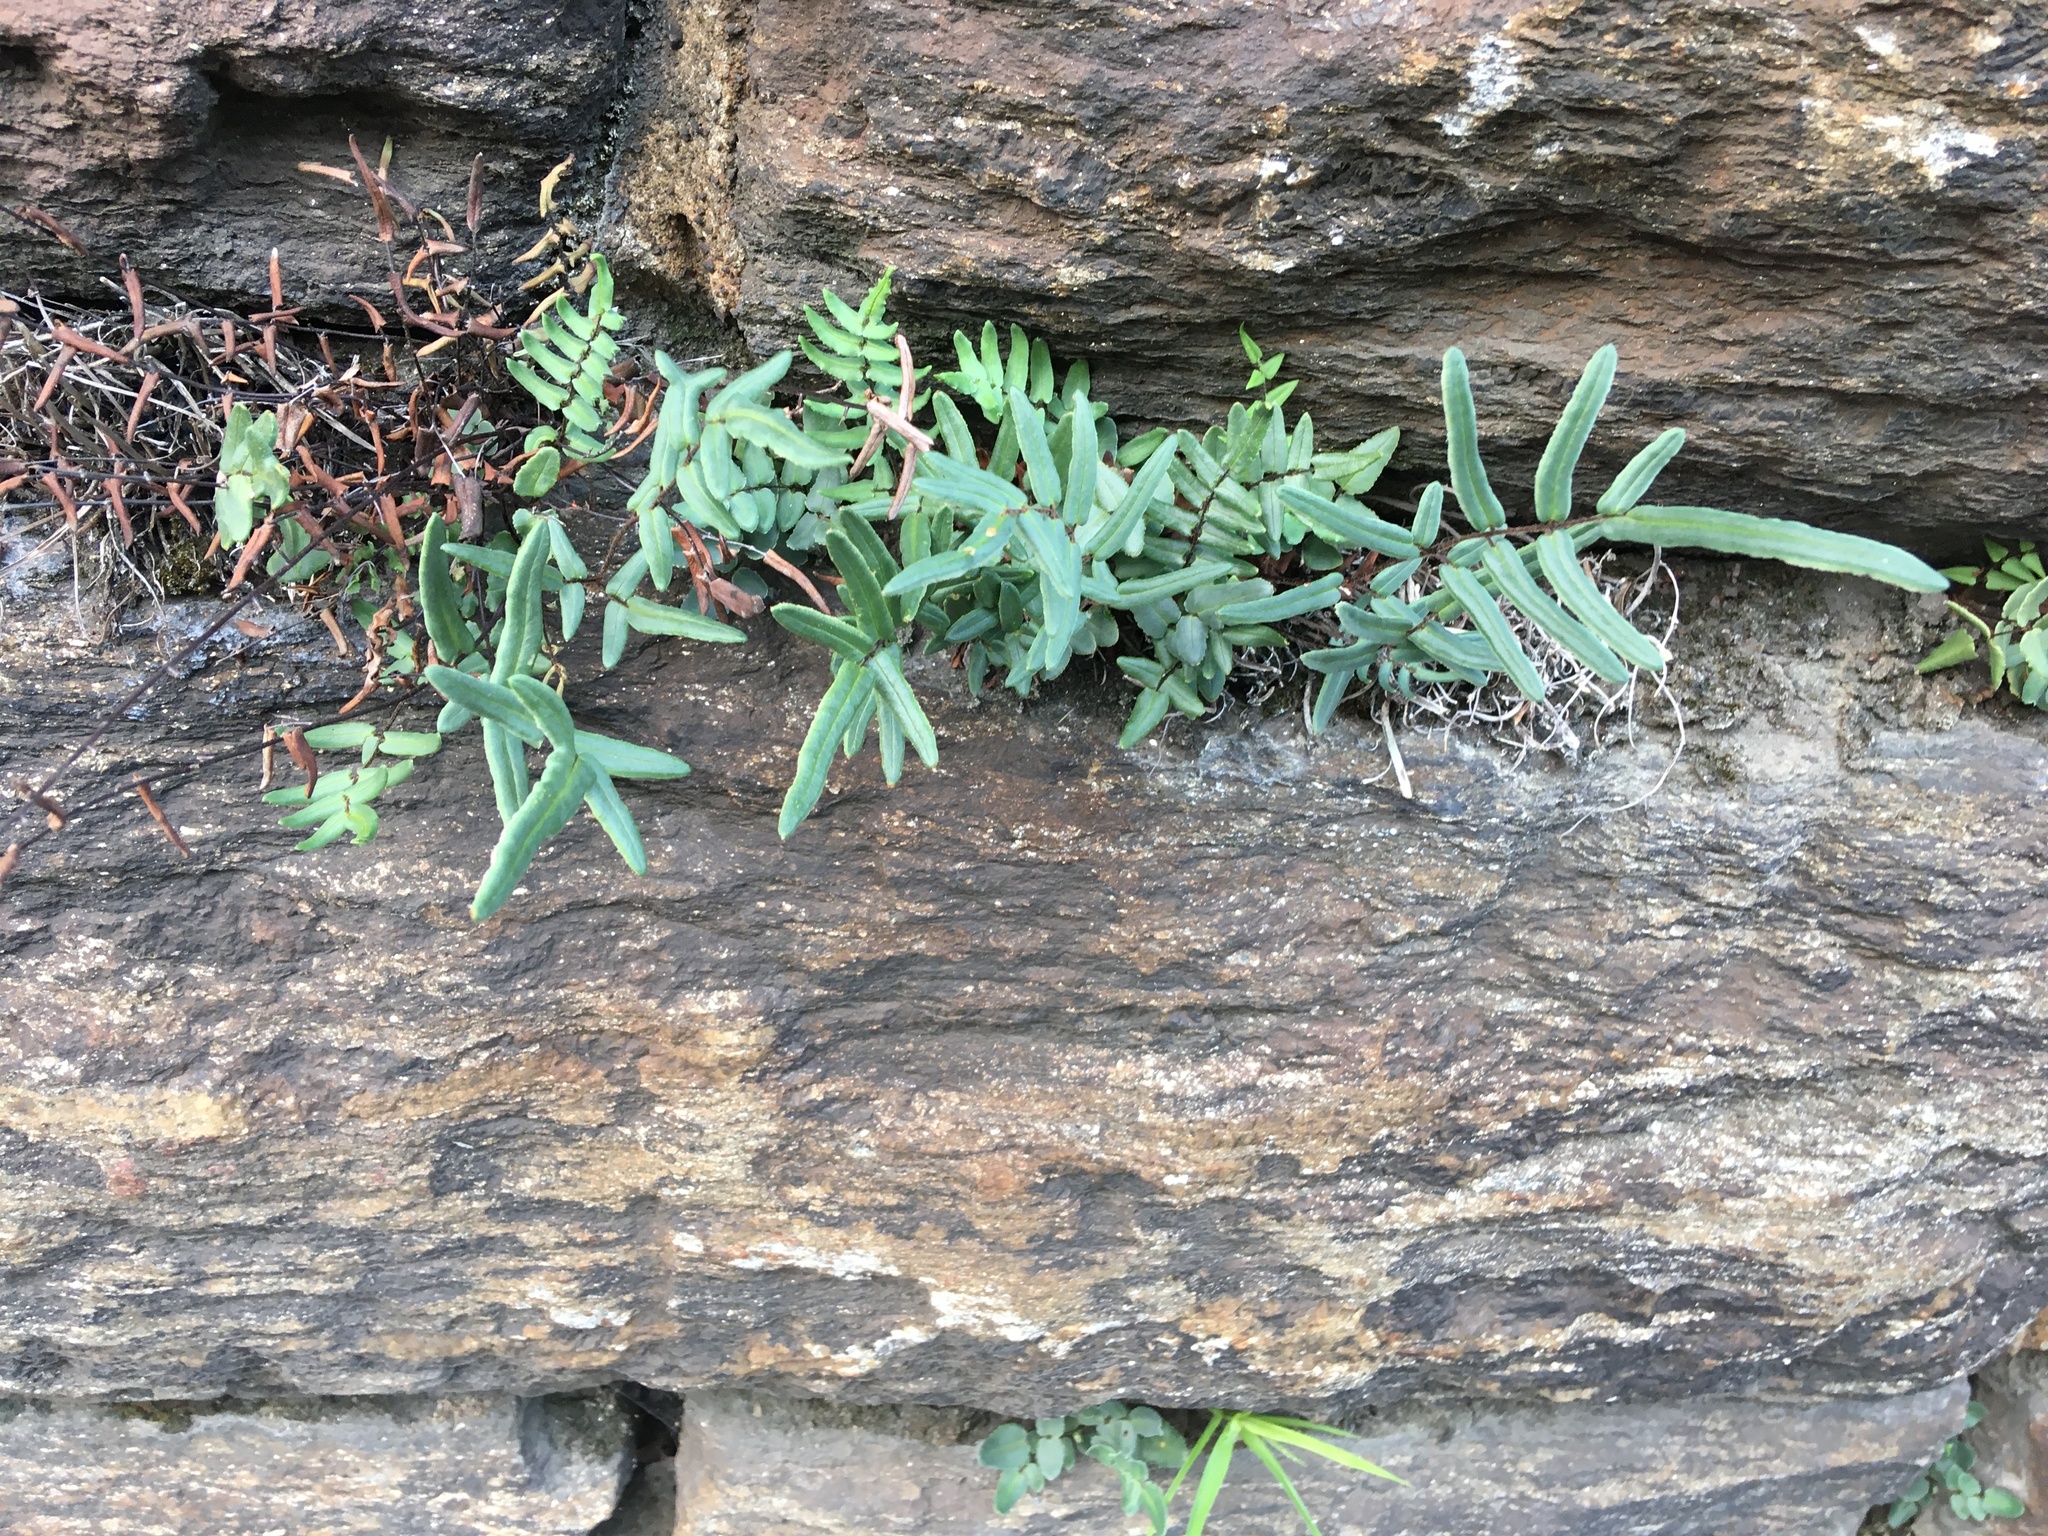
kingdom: Plantae
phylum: Tracheophyta
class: Polypodiopsida
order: Polypodiales
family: Pteridaceae
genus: Pellaea
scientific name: Pellaea atropurpurea
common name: Hairy cliffbrake
